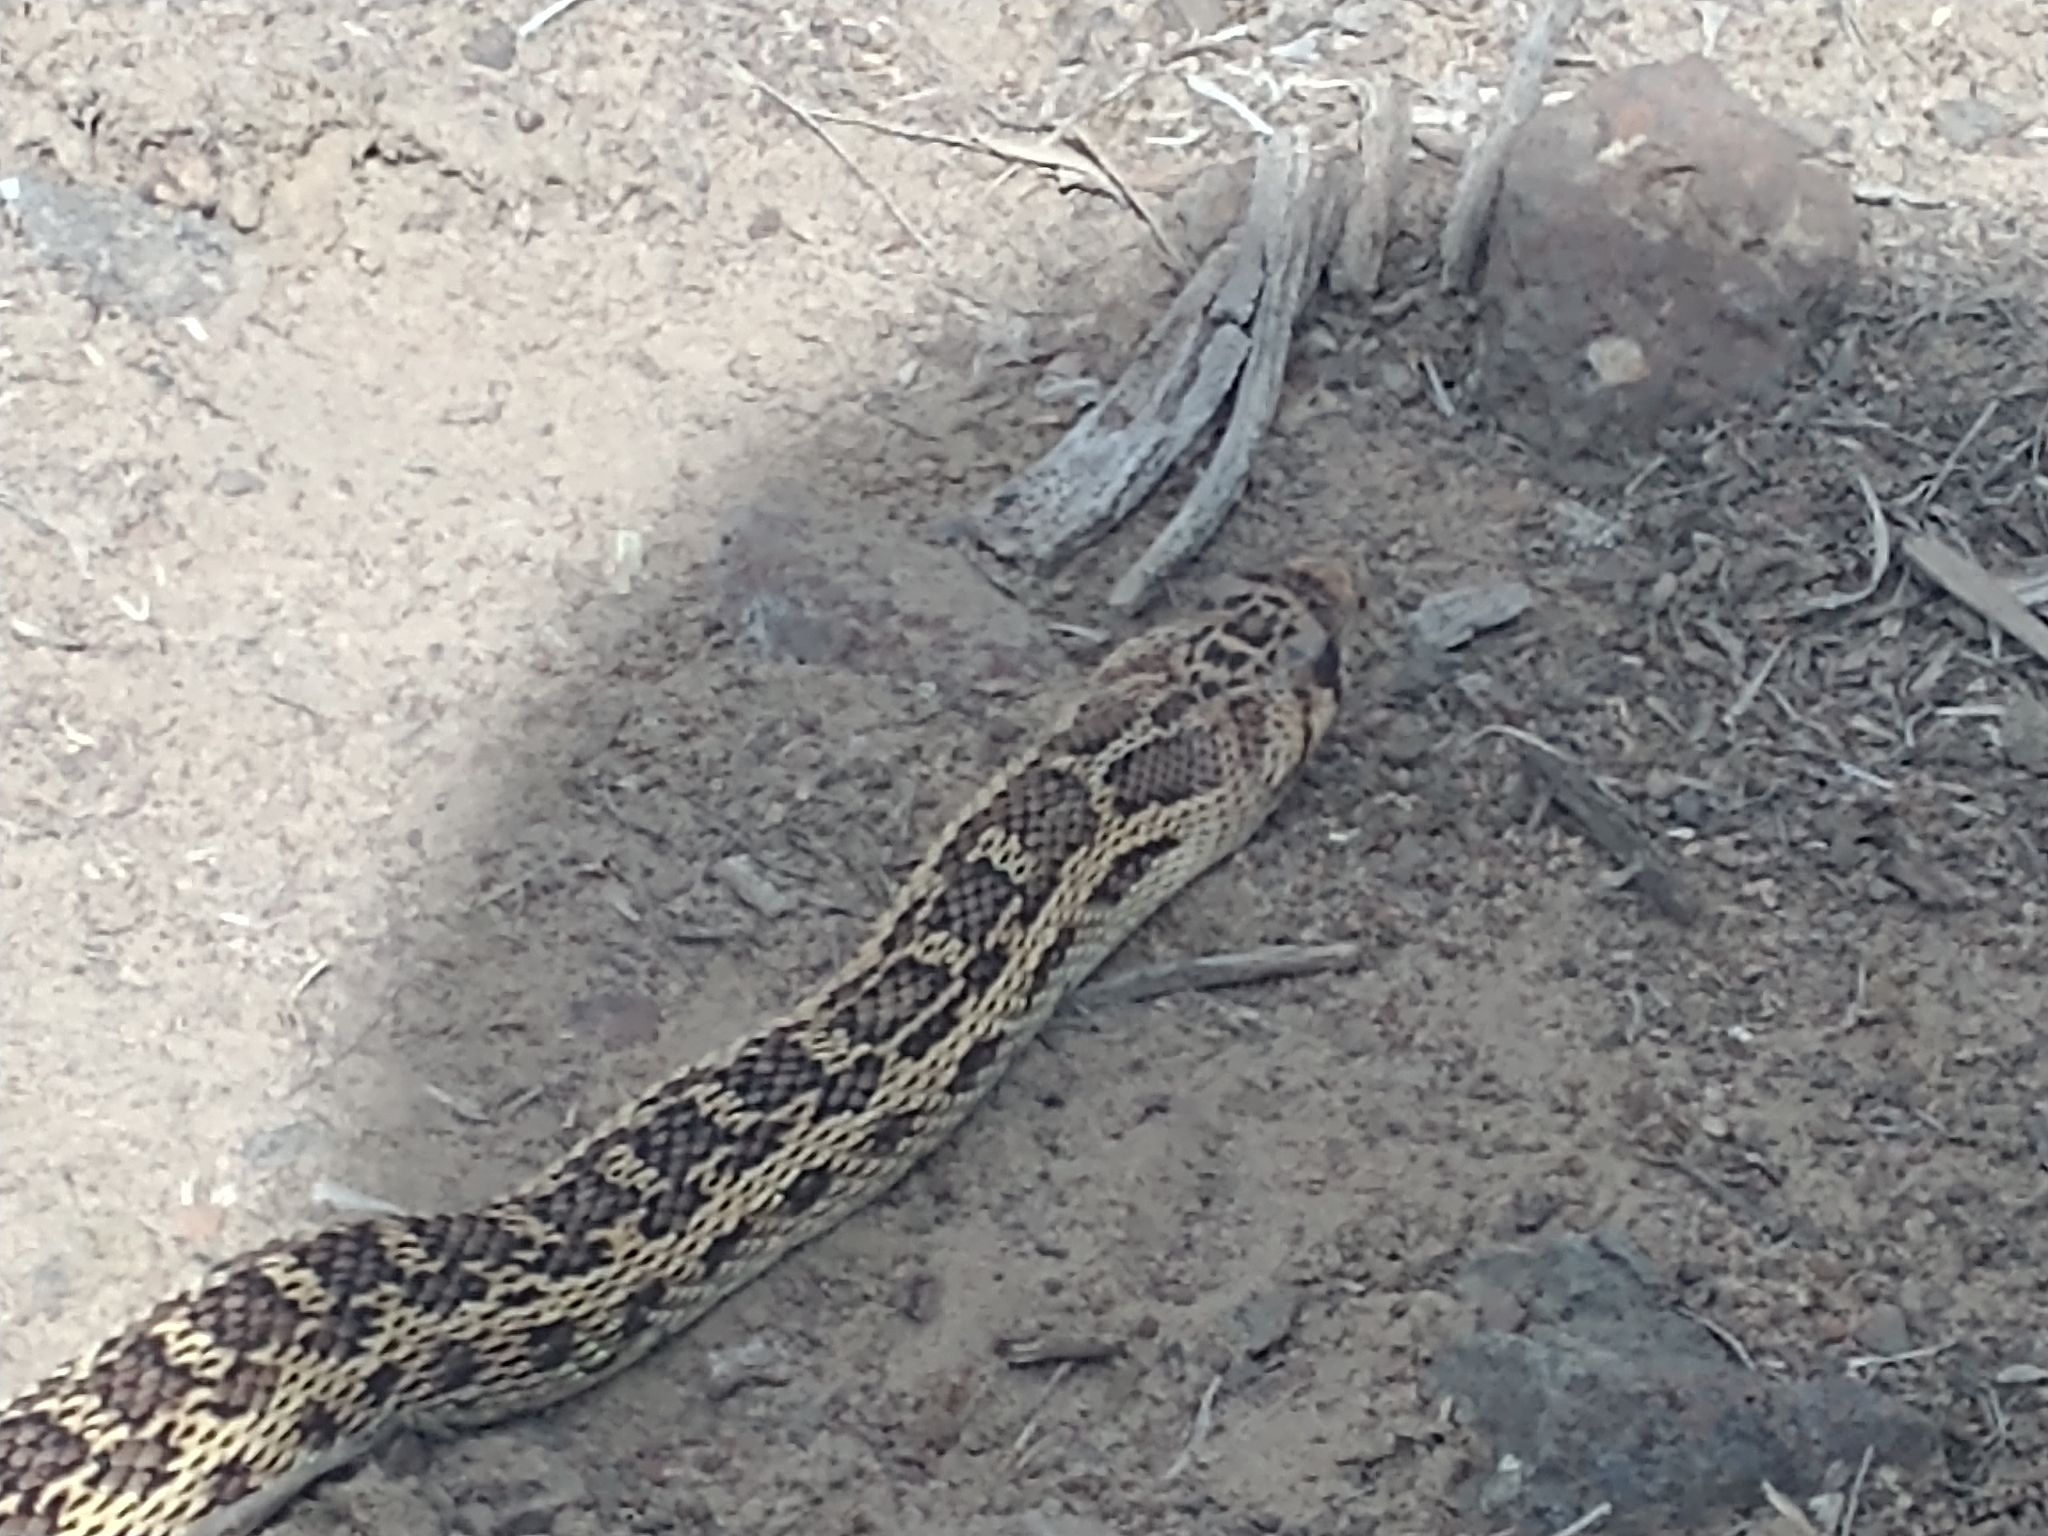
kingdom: Animalia
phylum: Chordata
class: Squamata
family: Colubridae
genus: Pituophis
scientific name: Pituophis catenifer
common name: Gopher snake
